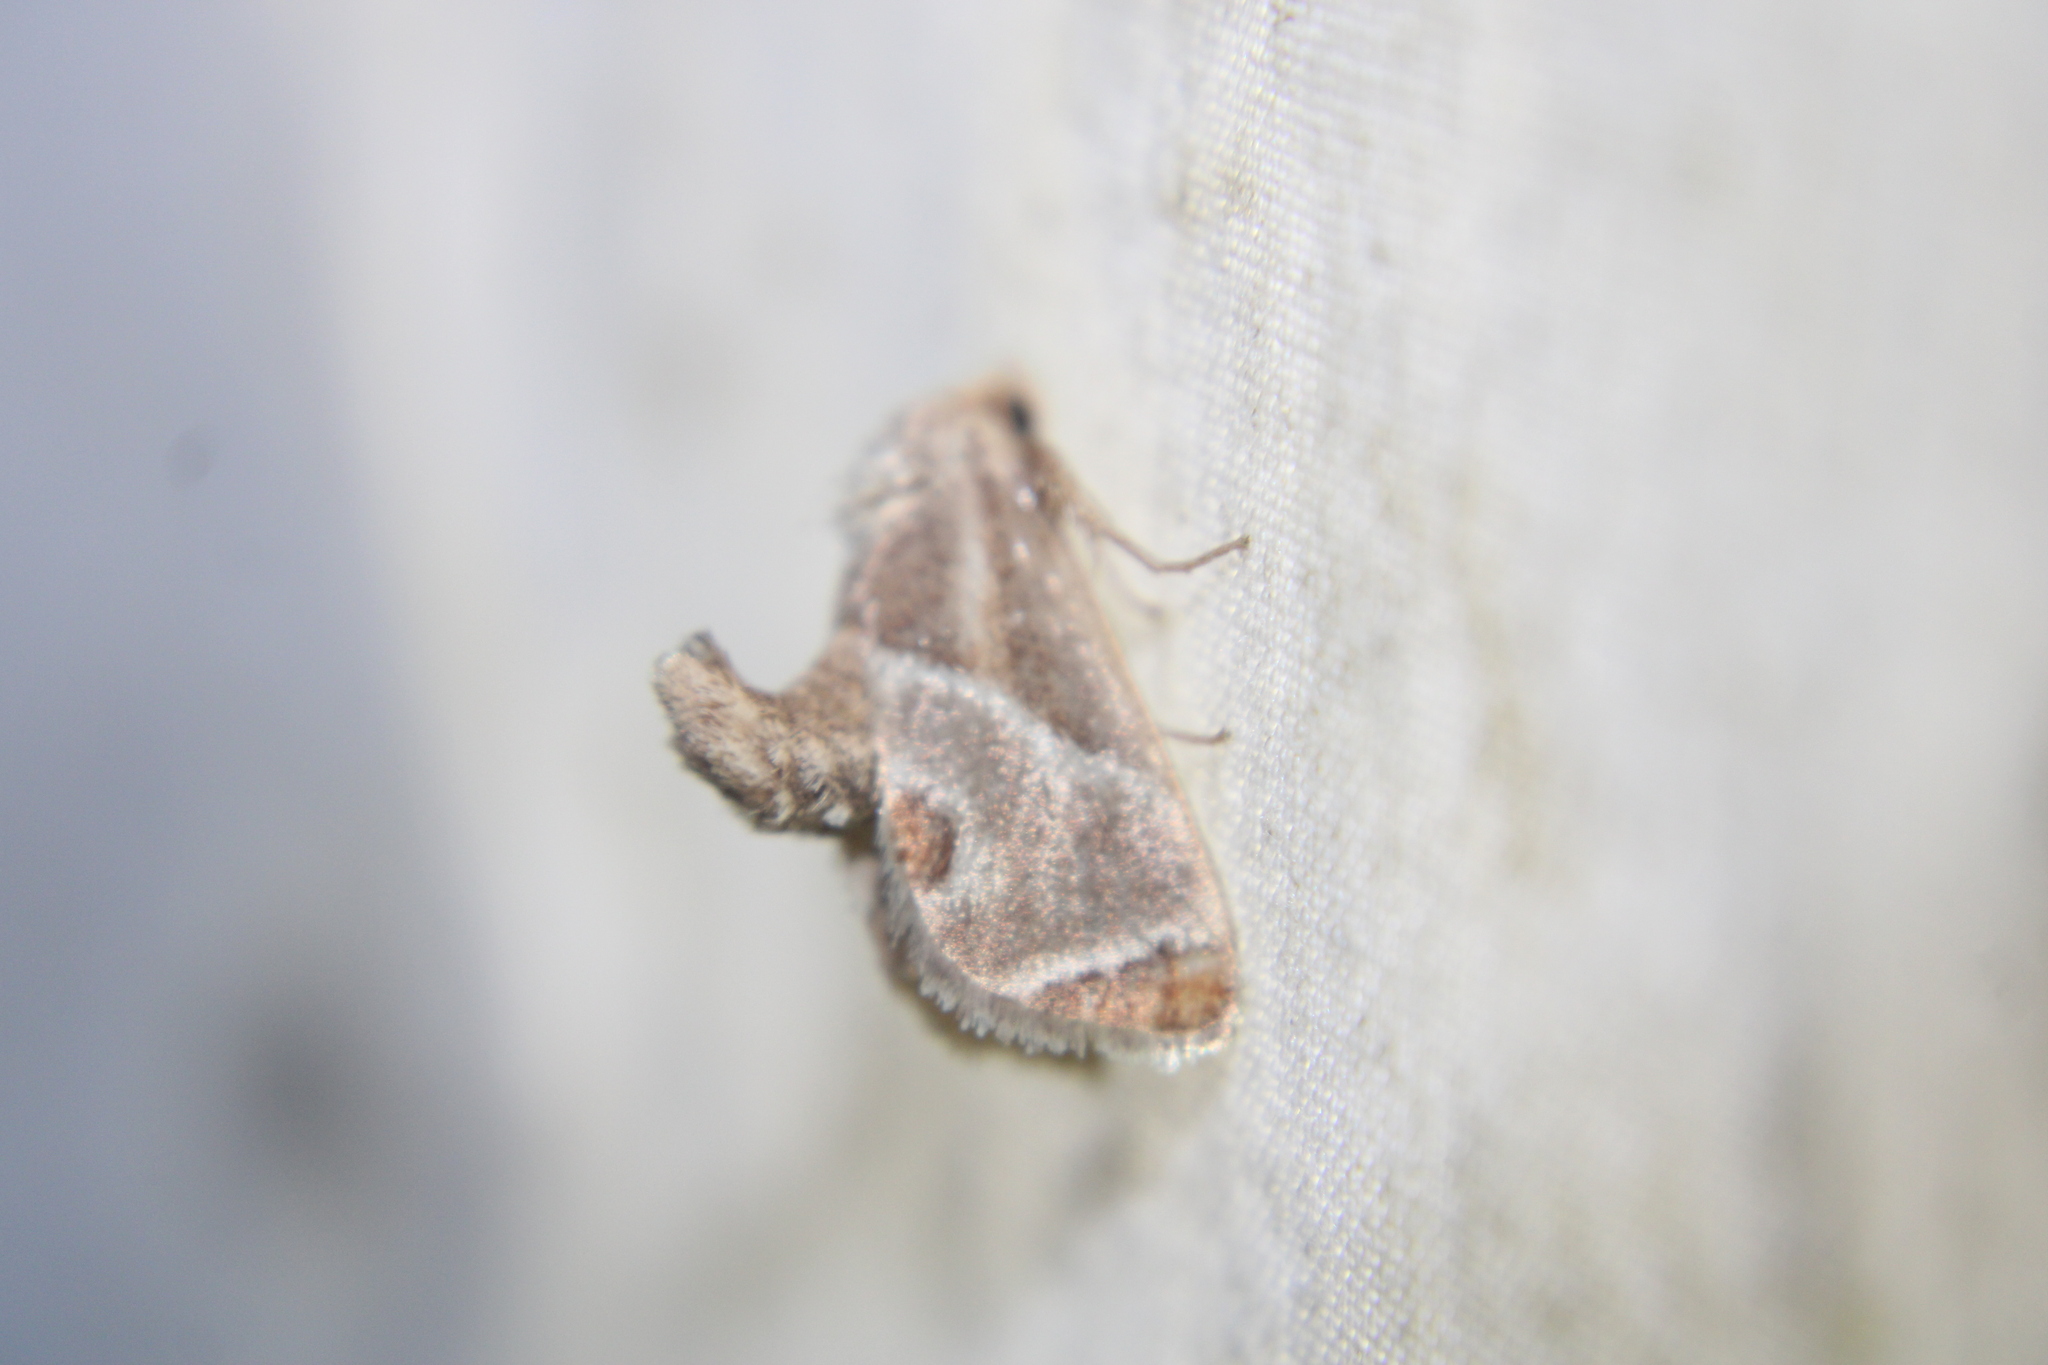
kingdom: Animalia
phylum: Arthropoda
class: Insecta
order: Lepidoptera
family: Limacodidae
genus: Apoda
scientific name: Apoda biguttata
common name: Shagreened slug moth
